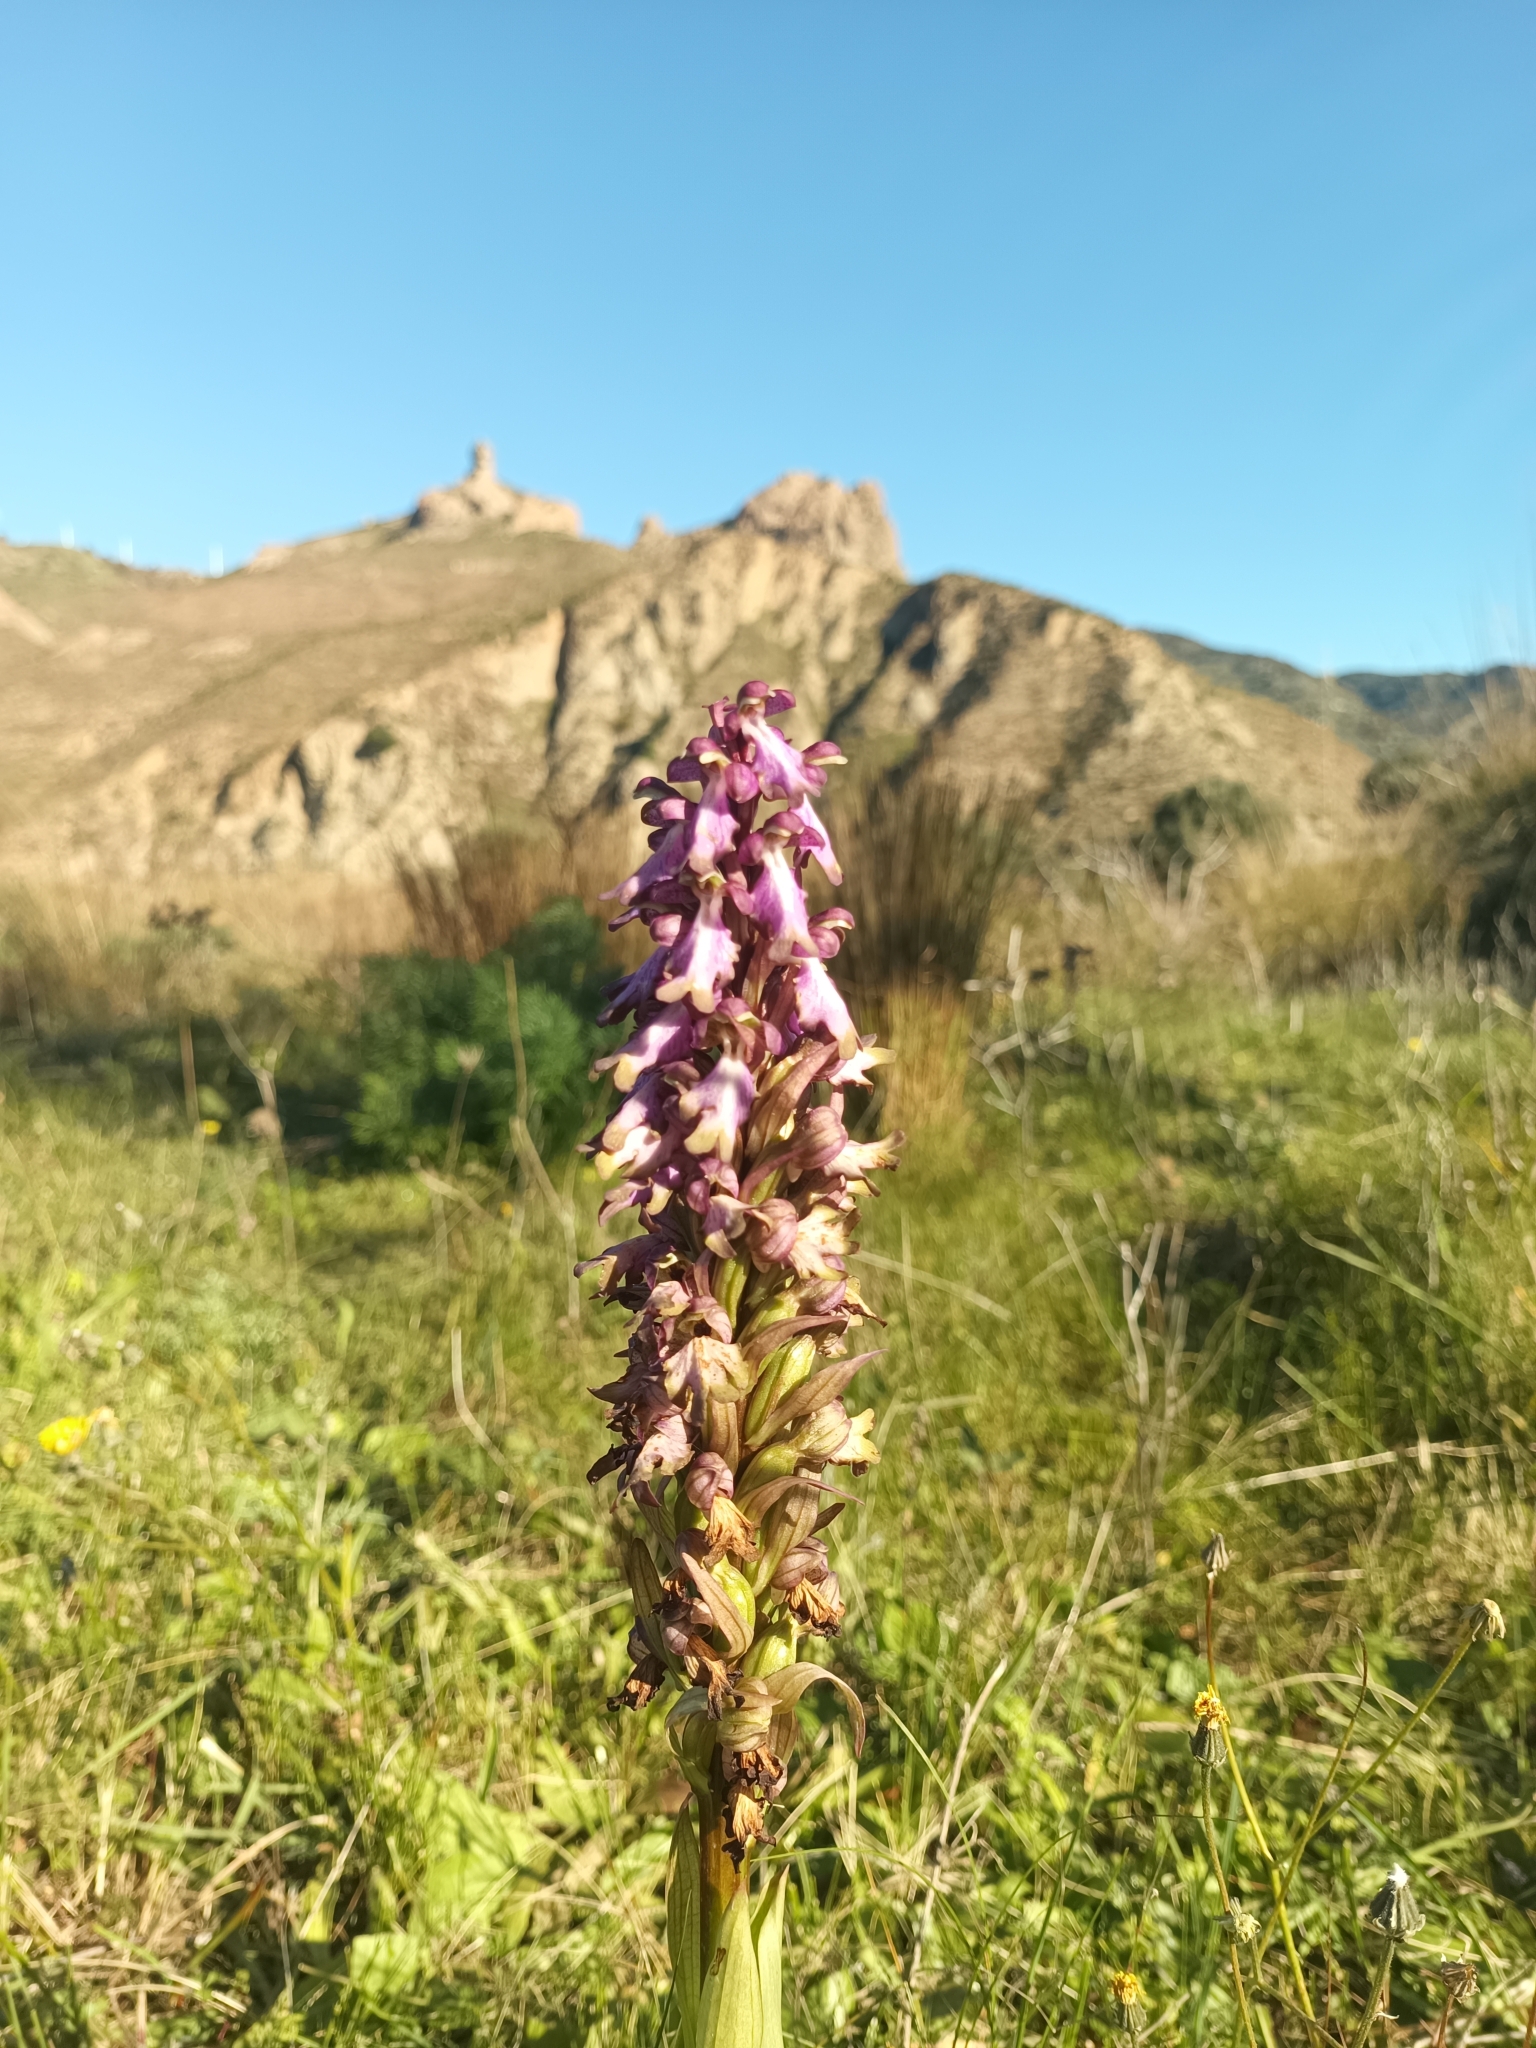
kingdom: Plantae
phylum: Tracheophyta
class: Liliopsida
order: Asparagales
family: Orchidaceae
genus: Himantoglossum
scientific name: Himantoglossum robertianum
